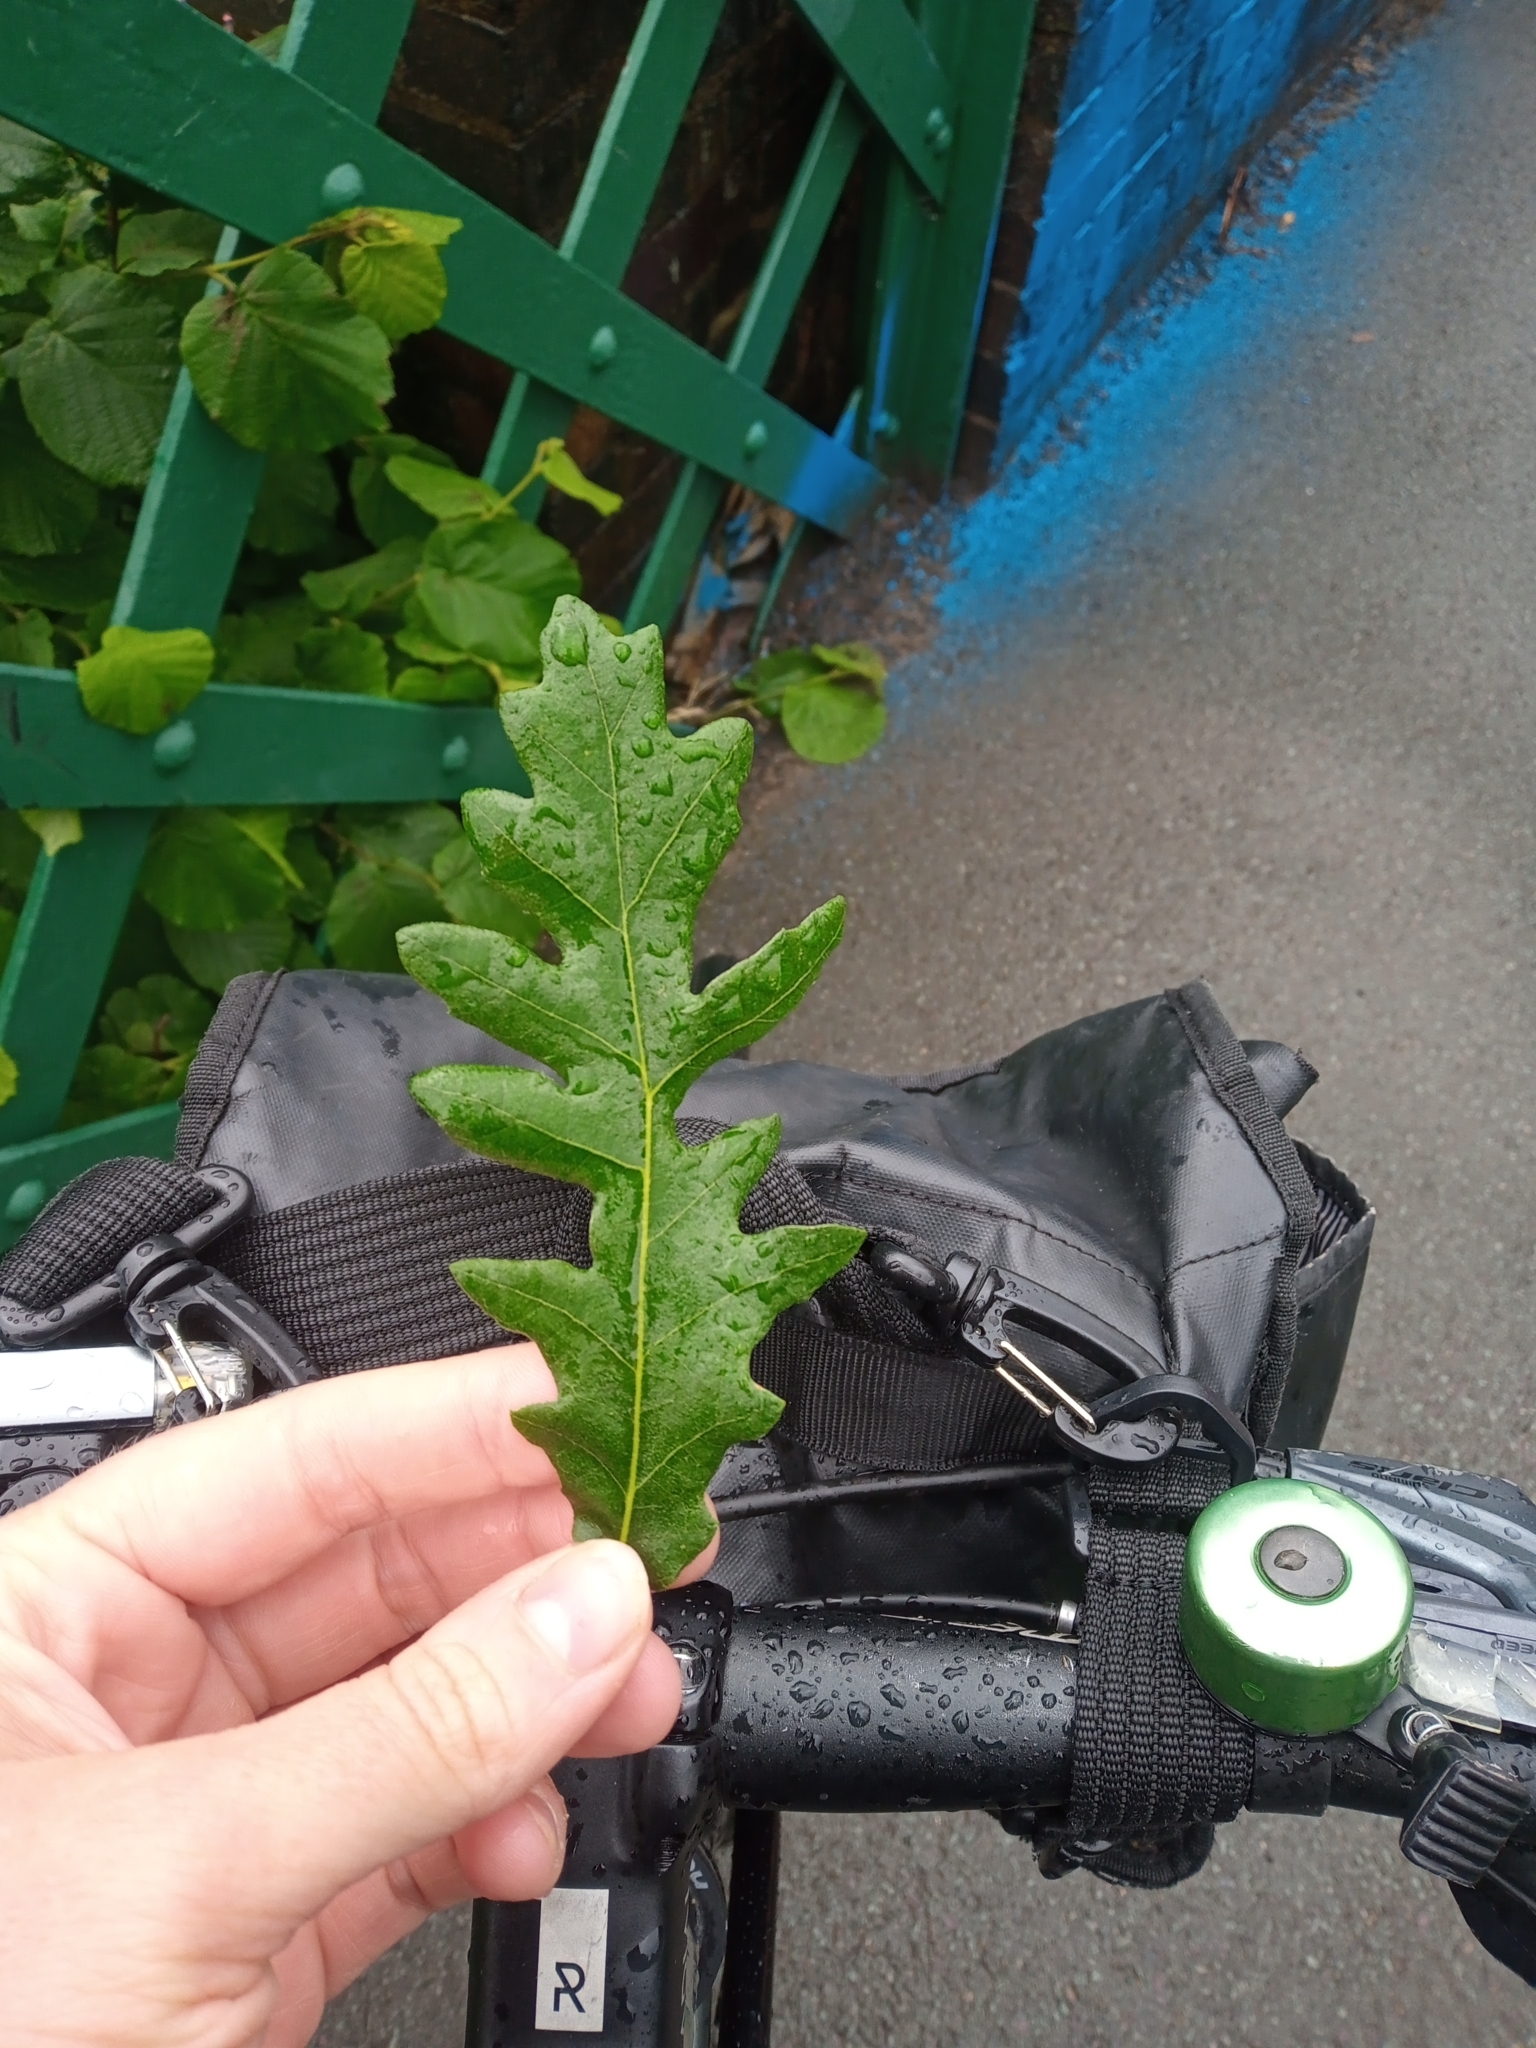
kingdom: Plantae
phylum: Tracheophyta
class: Magnoliopsida
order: Fagales
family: Fagaceae
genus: Quercus
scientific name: Quercus cerris
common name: Turkey oak
